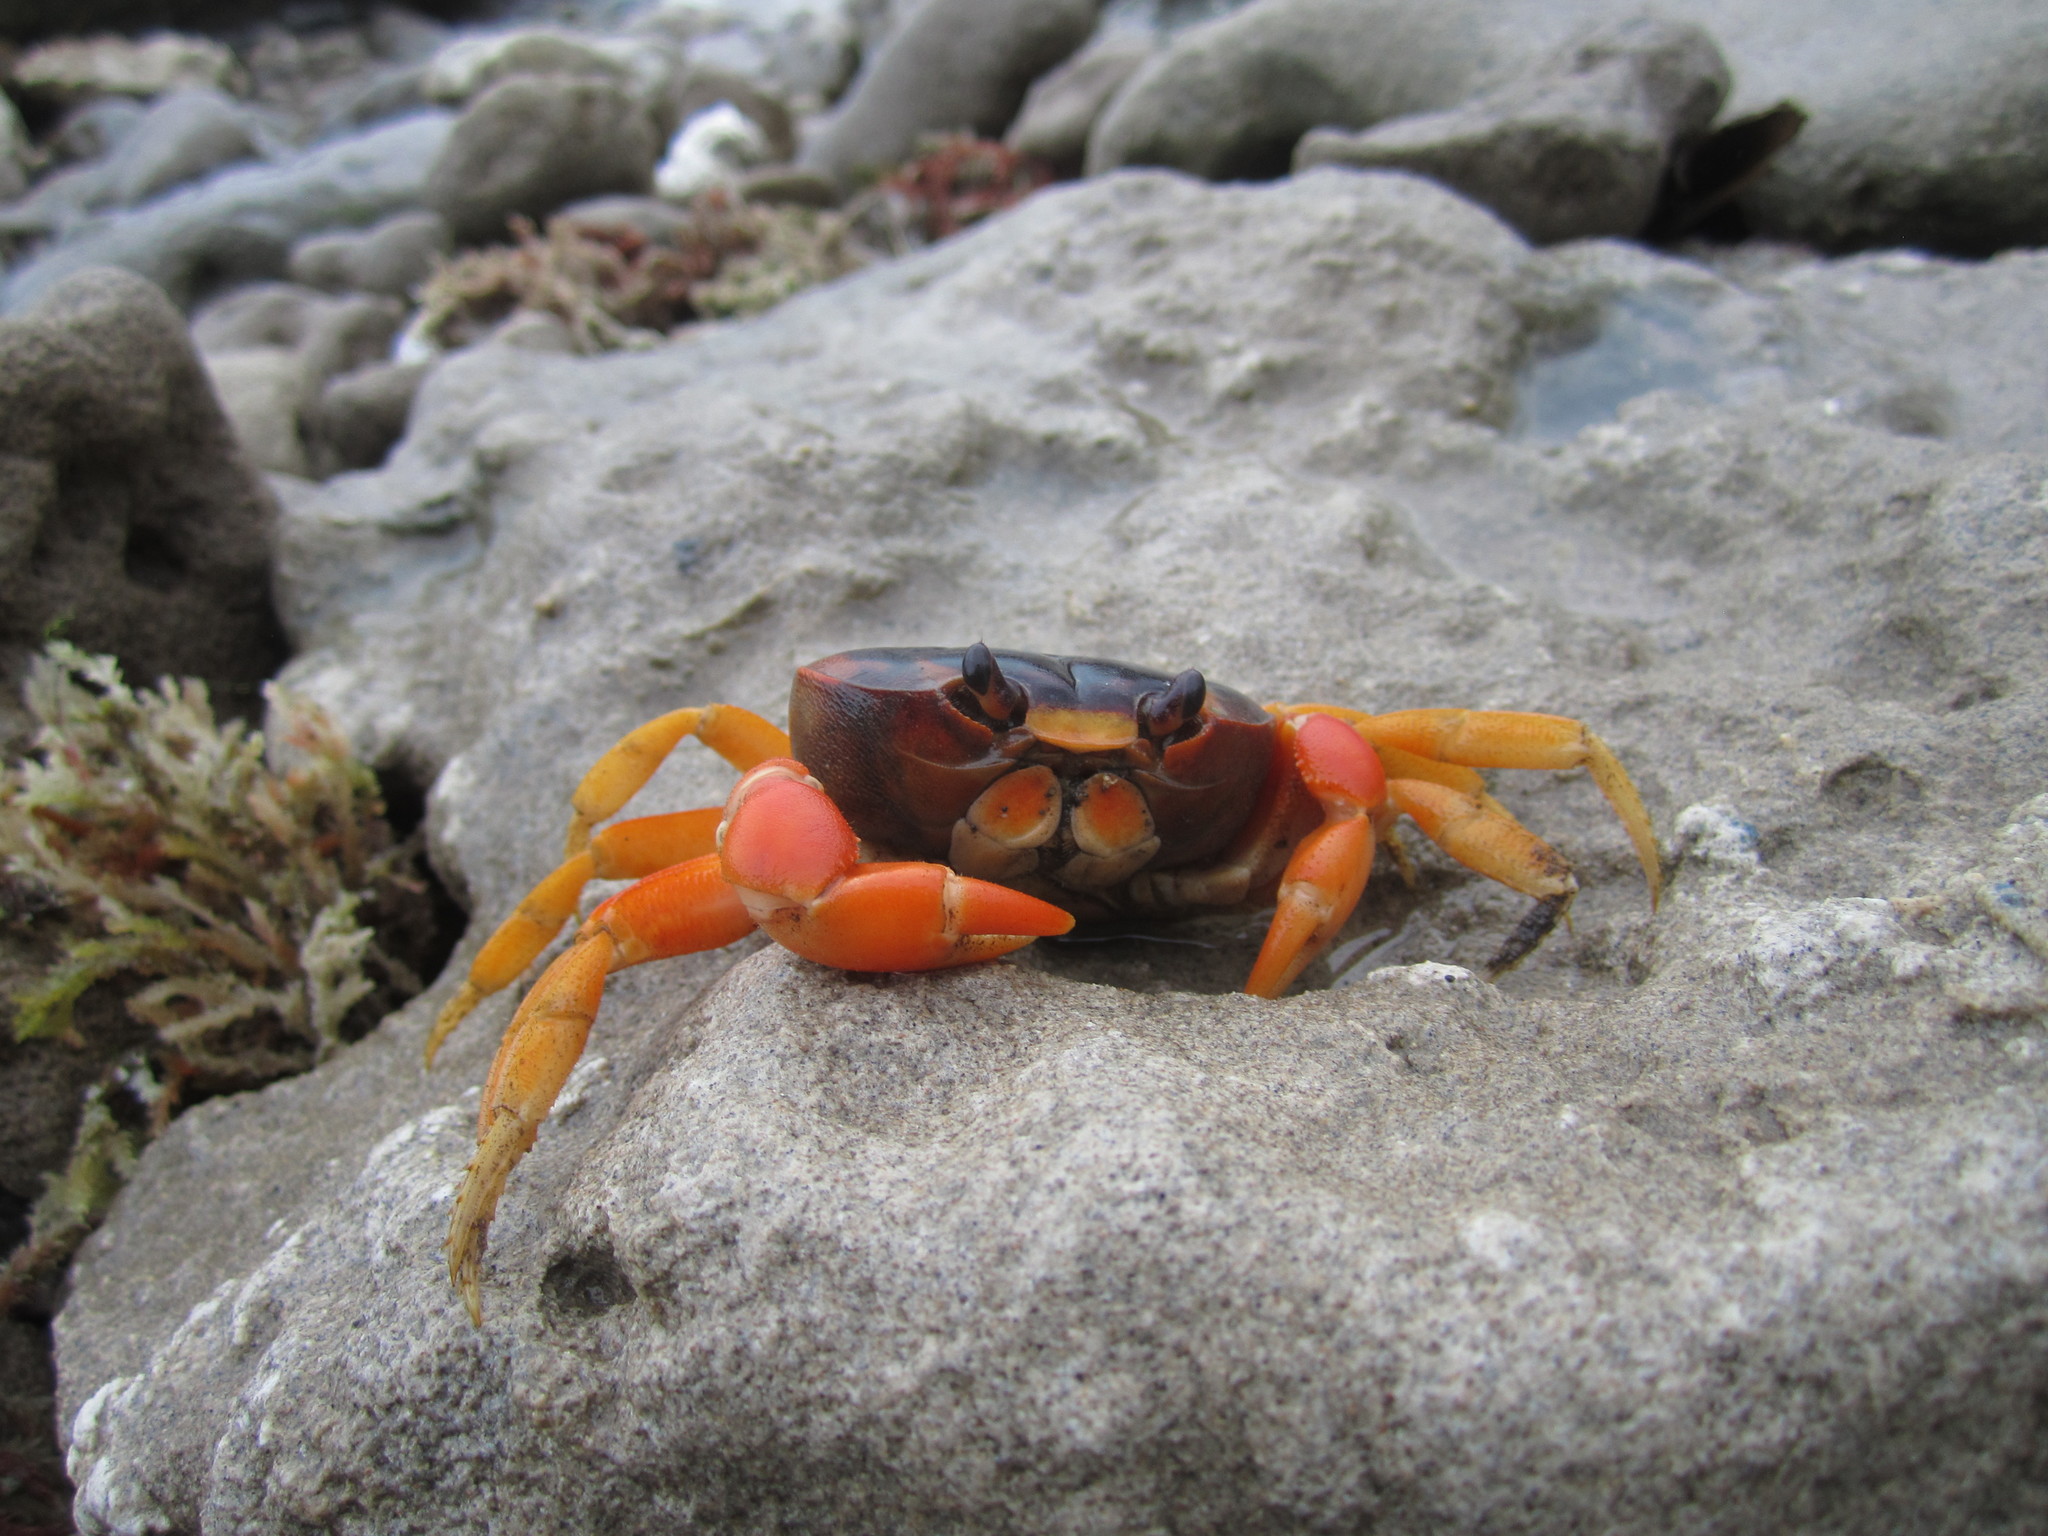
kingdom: Animalia
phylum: Arthropoda
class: Malacostraca
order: Decapoda
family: Gecarcinidae
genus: Gecarcinus
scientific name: Gecarcinus lateralis
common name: Bermuda land crab
